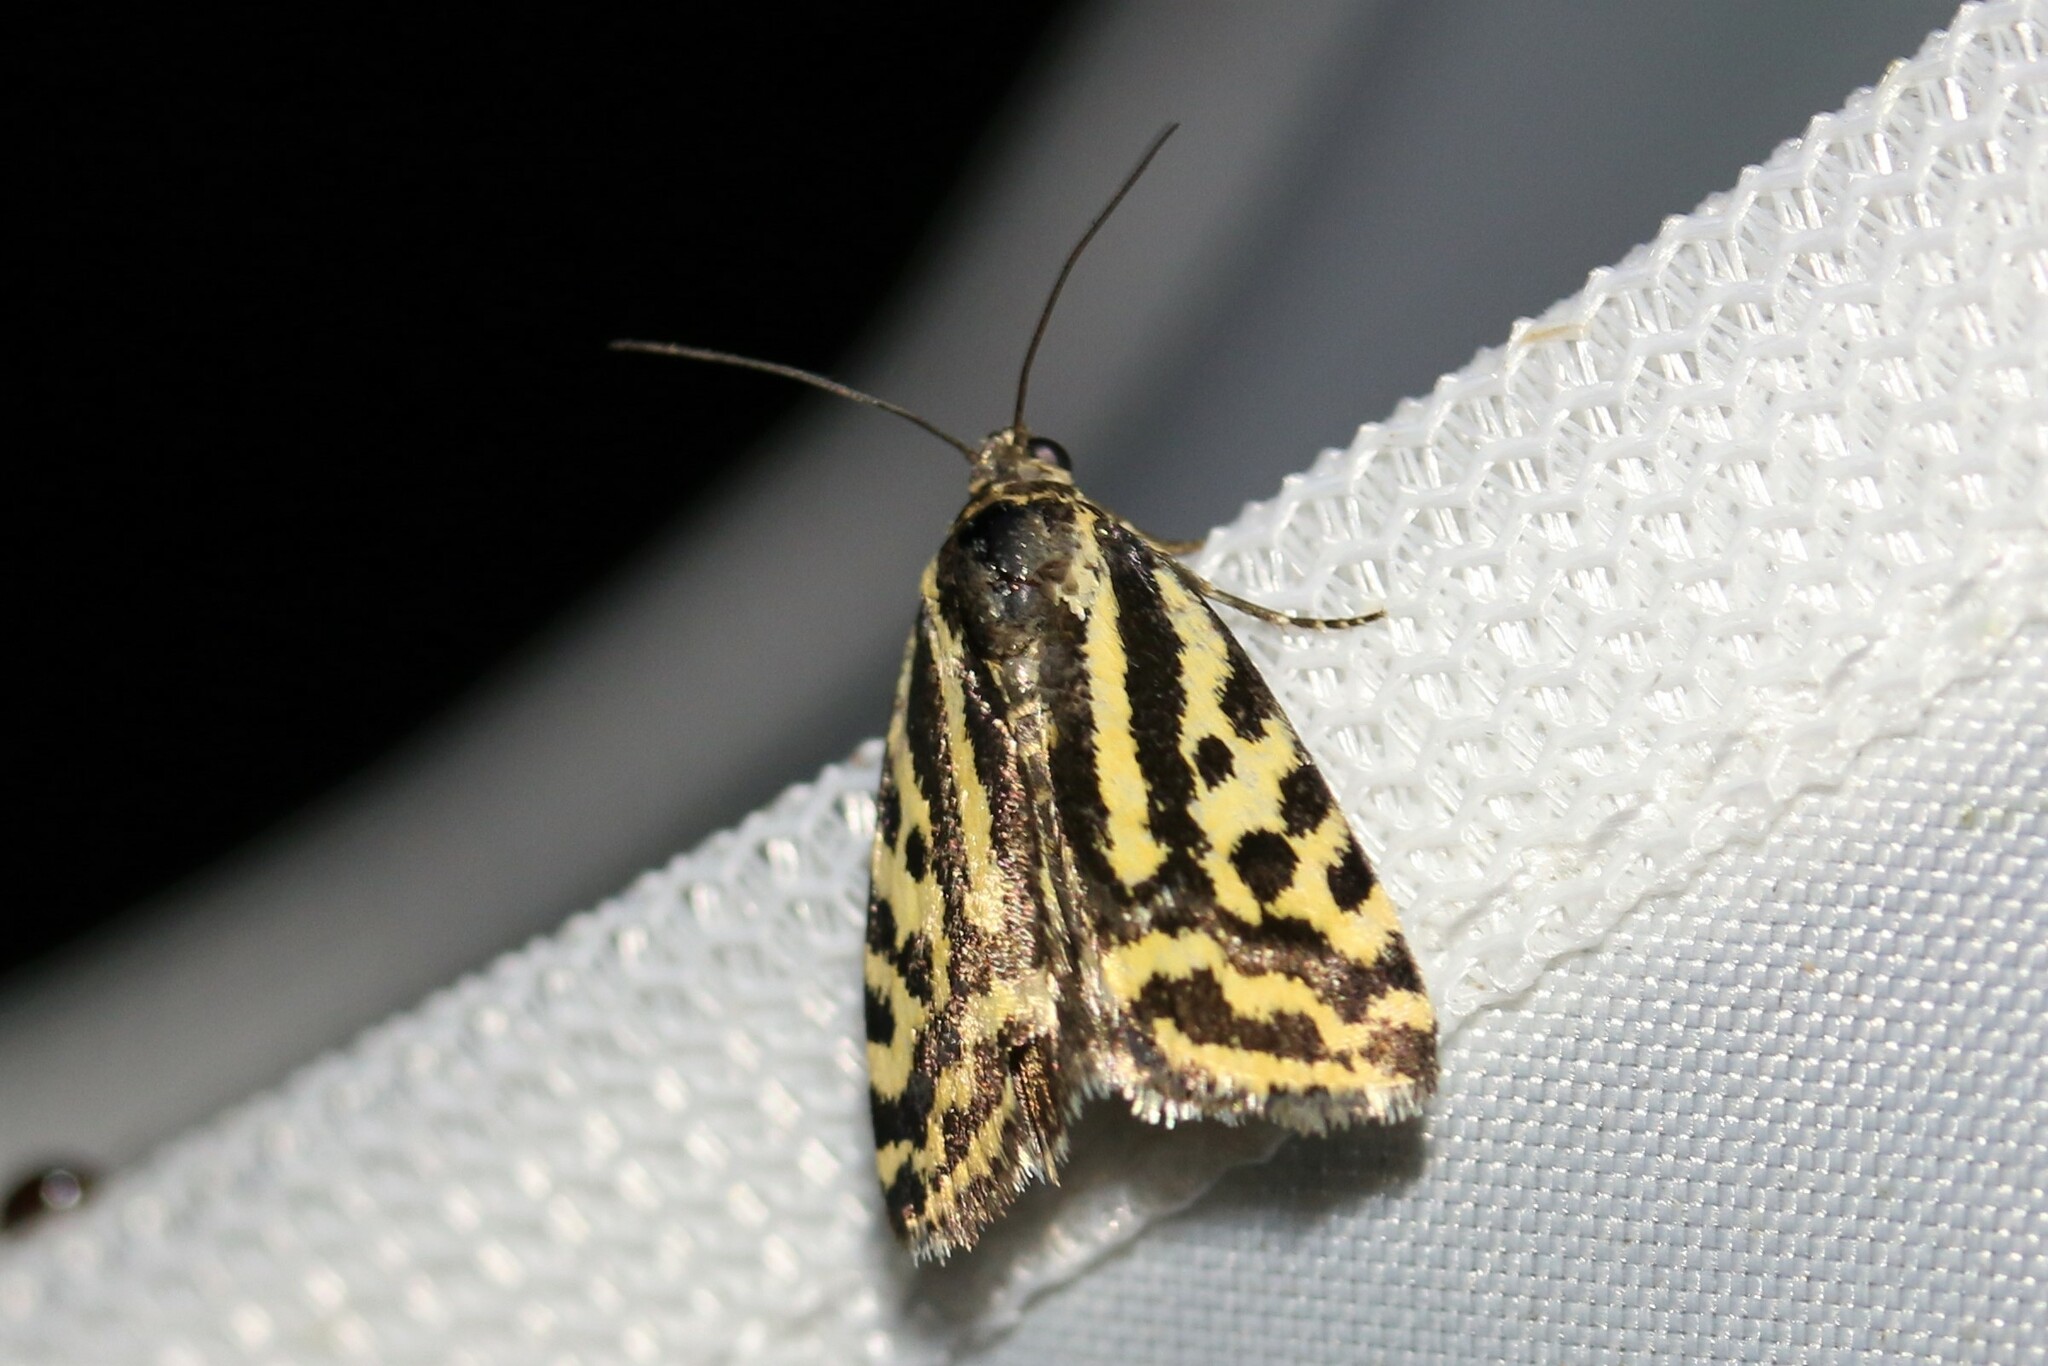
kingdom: Animalia
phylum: Arthropoda
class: Insecta
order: Lepidoptera
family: Noctuidae
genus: Acontia
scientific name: Acontia trabealis
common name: Spotted sulphur
